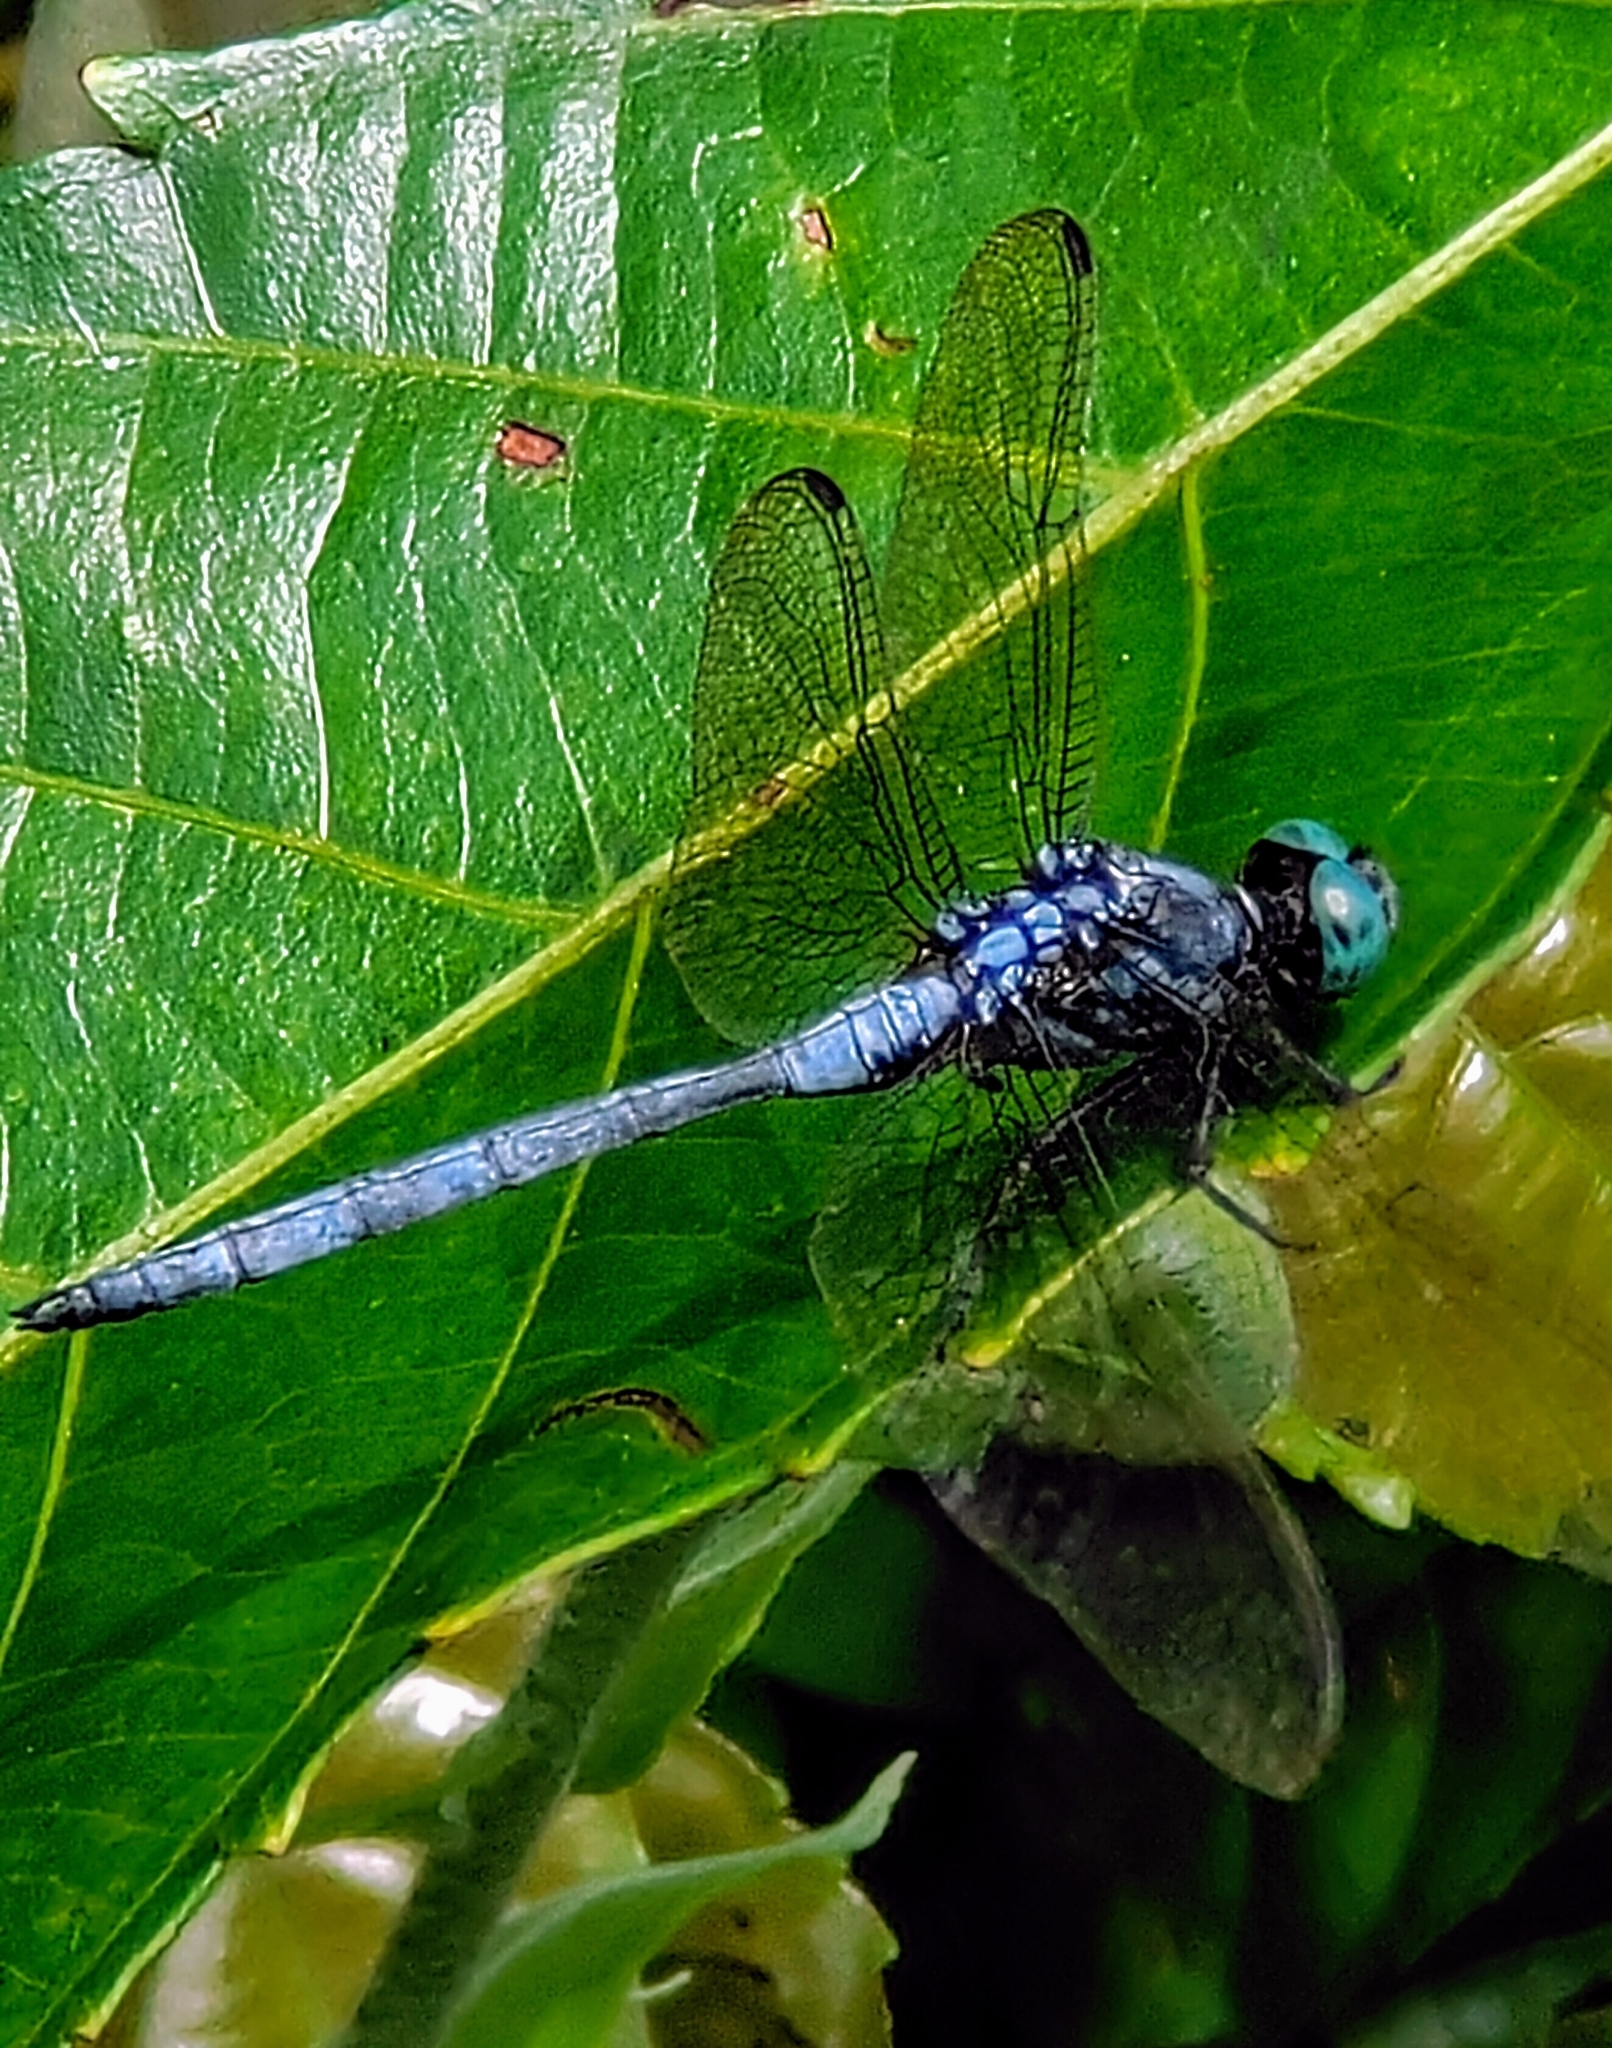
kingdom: Animalia
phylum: Arthropoda
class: Insecta
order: Odonata
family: Libellulidae
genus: Orthetrum
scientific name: Orthetrum luzonicum
